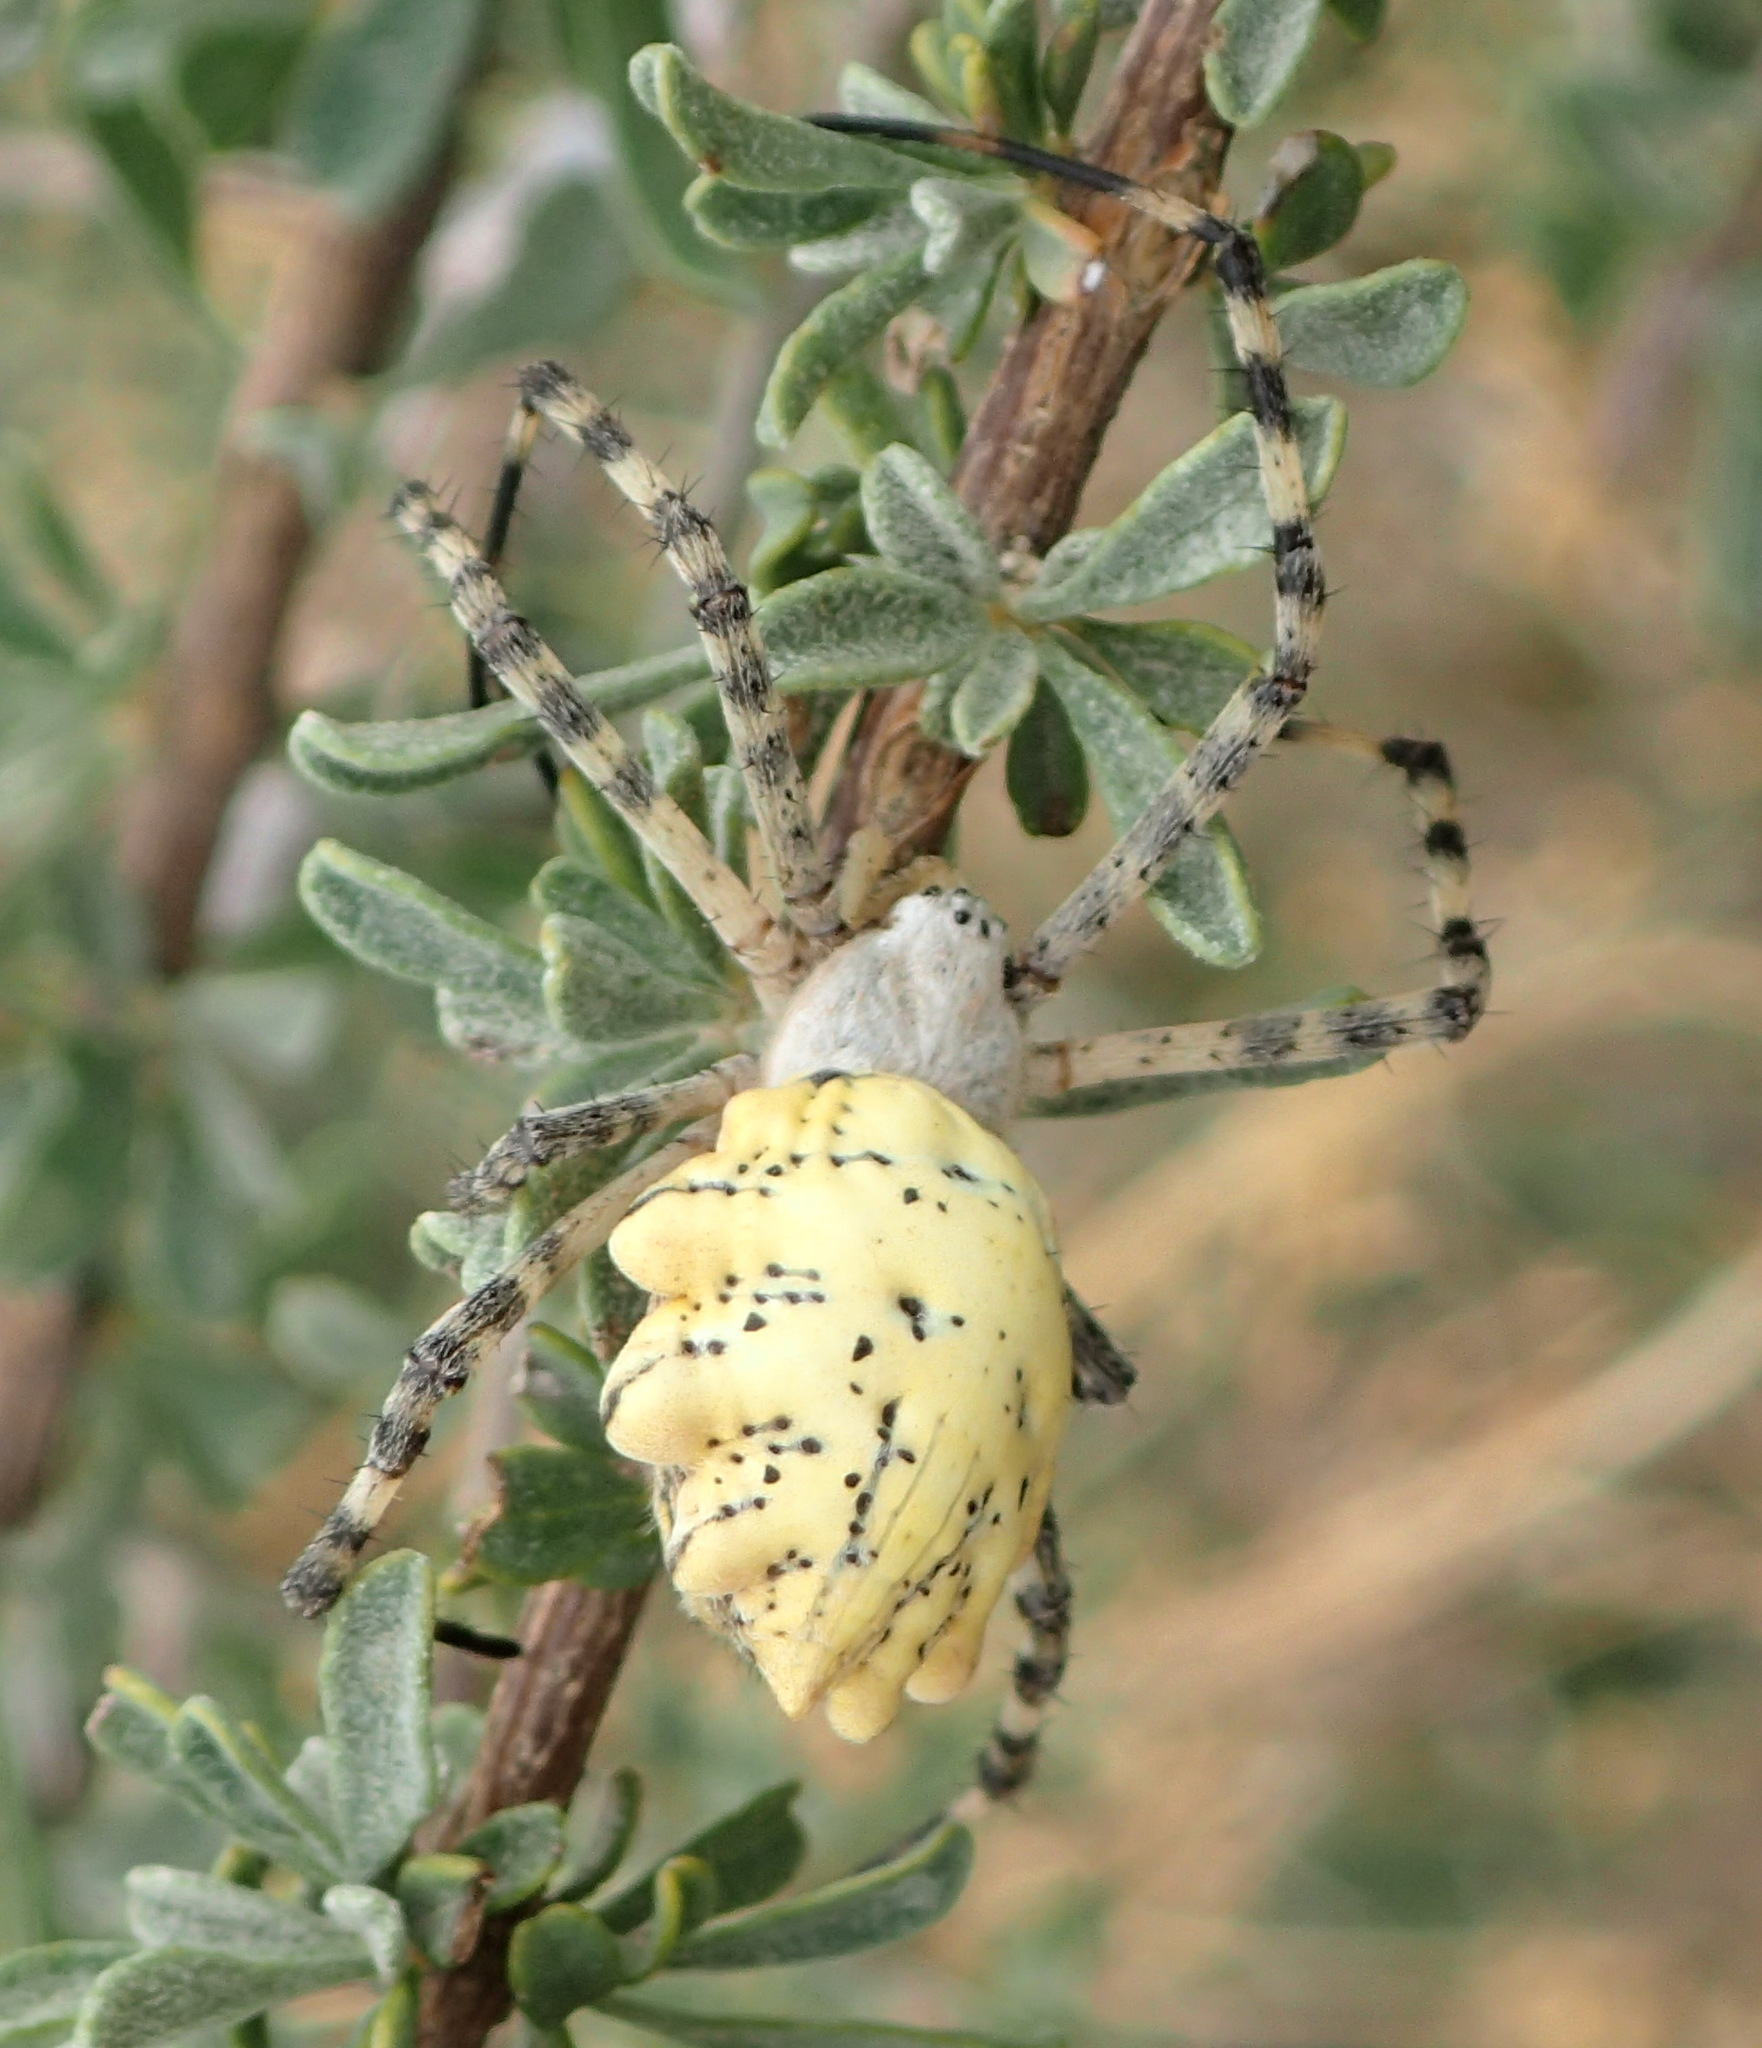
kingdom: Animalia
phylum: Arthropoda
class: Arachnida
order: Araneae
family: Araneidae
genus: Argiope
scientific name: Argiope australis
